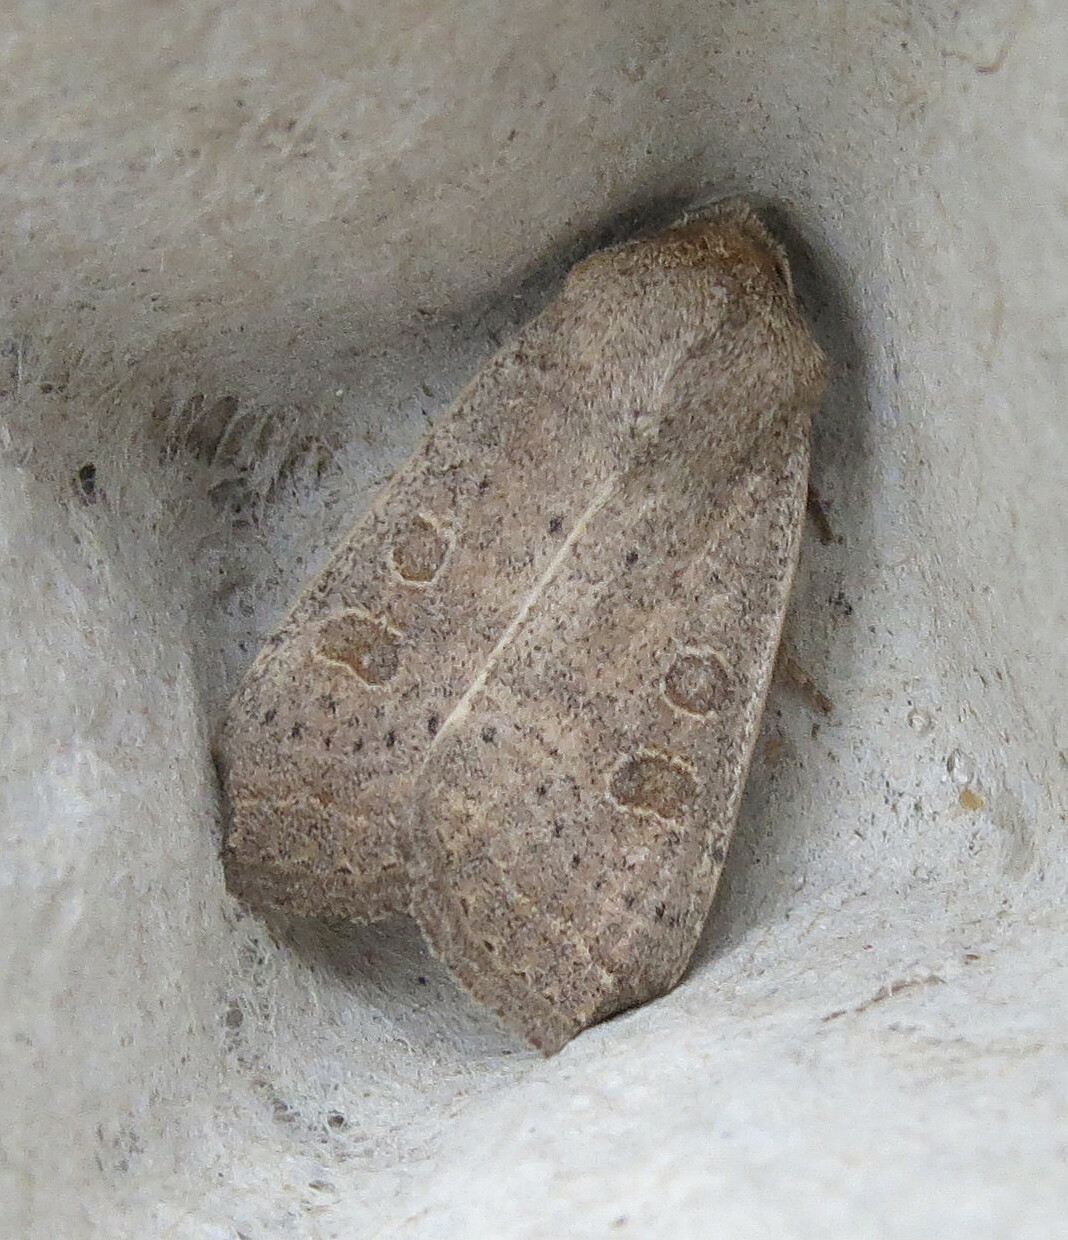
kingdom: Animalia
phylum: Arthropoda
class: Insecta
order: Lepidoptera
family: Noctuidae
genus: Hoplodrina
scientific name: Hoplodrina ambigua
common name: Vine's rustic
